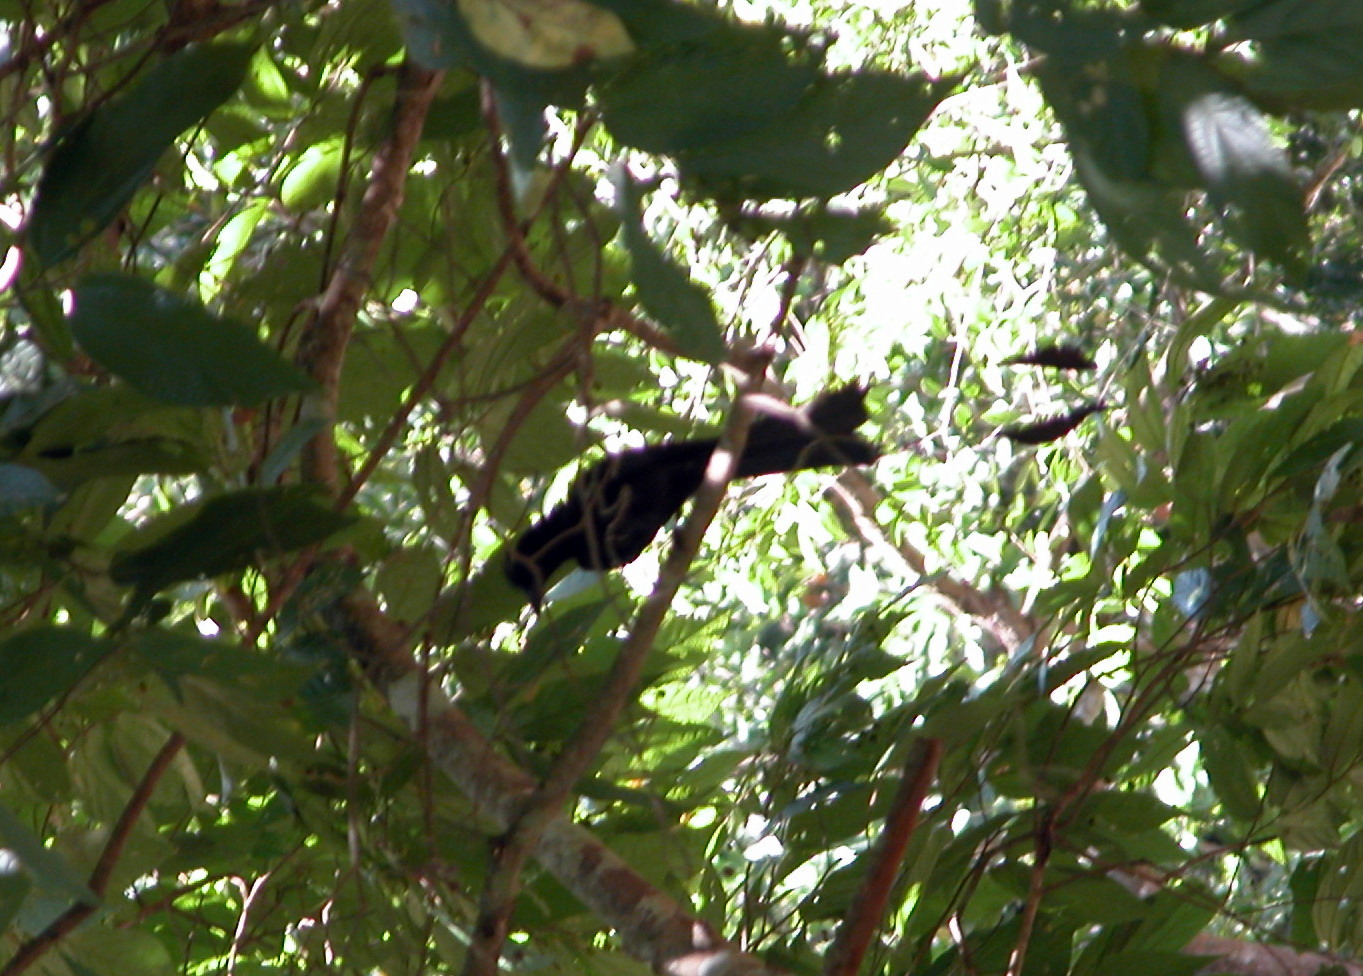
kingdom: Animalia
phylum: Chordata
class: Aves
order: Passeriformes
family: Dicruridae
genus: Dicrurus
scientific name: Dicrurus paradiseus
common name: Greater racket-tailed drongo
